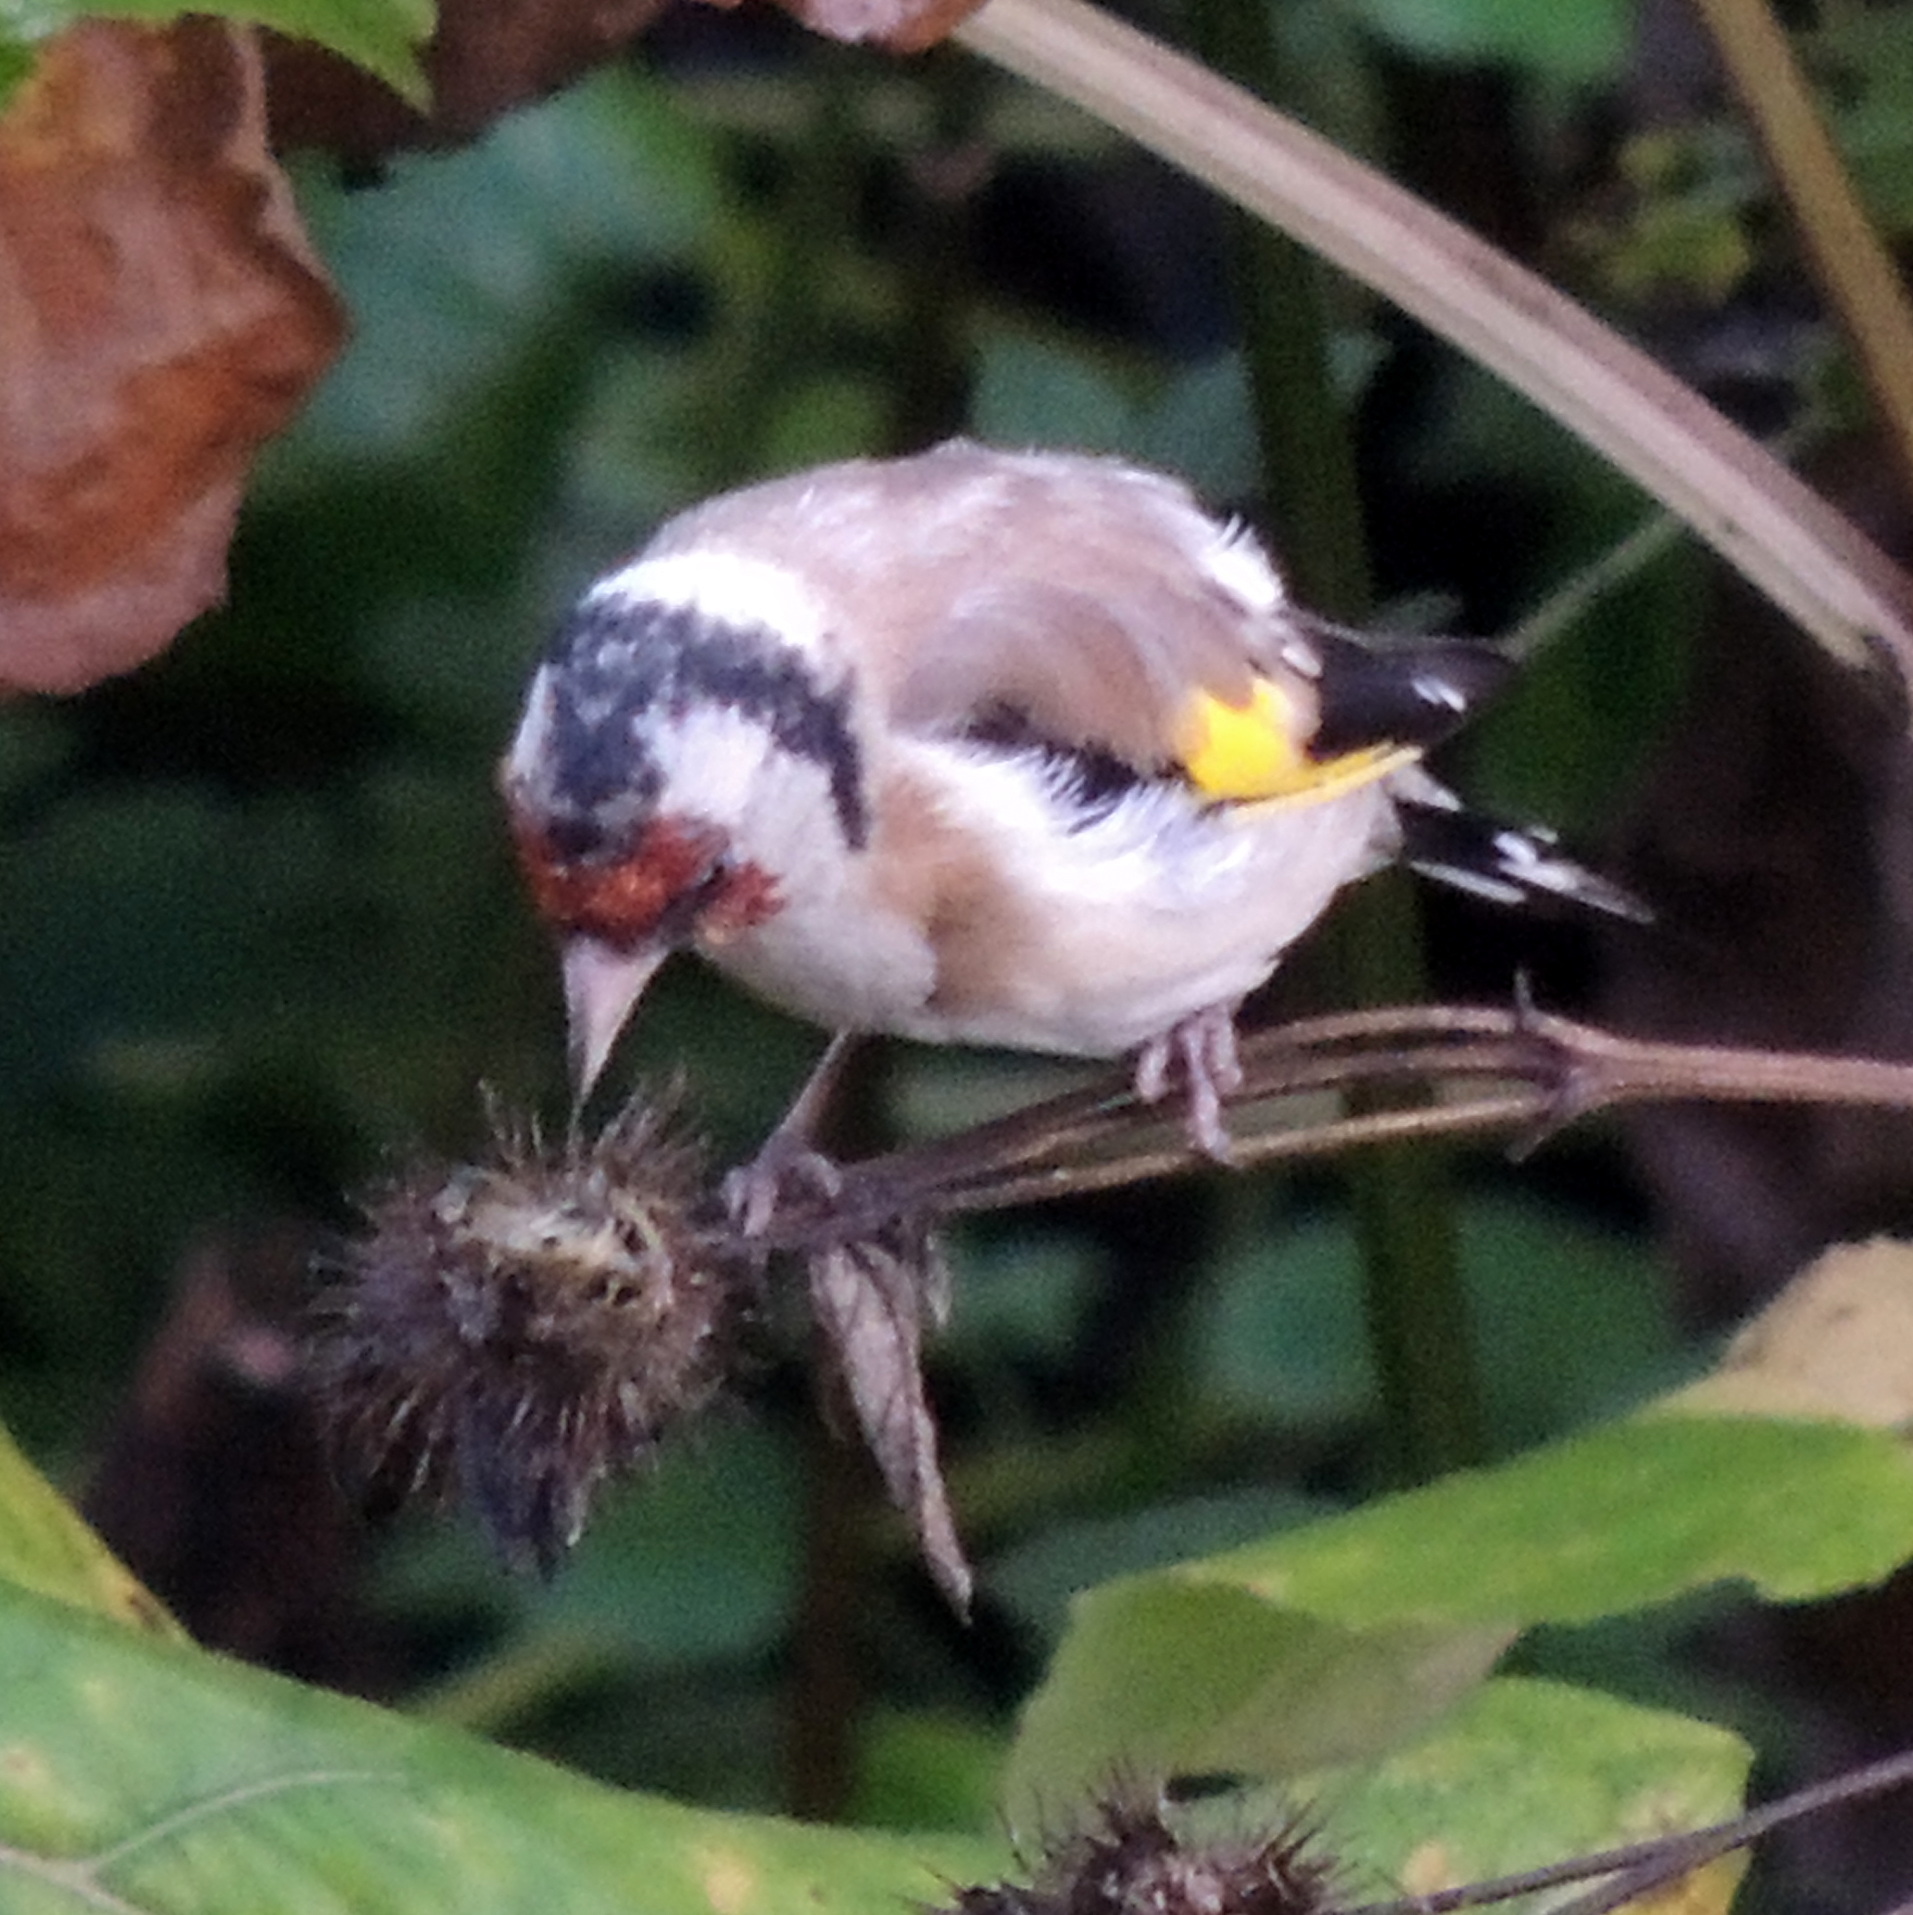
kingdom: Animalia
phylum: Chordata
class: Aves
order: Passeriformes
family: Fringillidae
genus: Carduelis
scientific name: Carduelis carduelis
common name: European goldfinch
